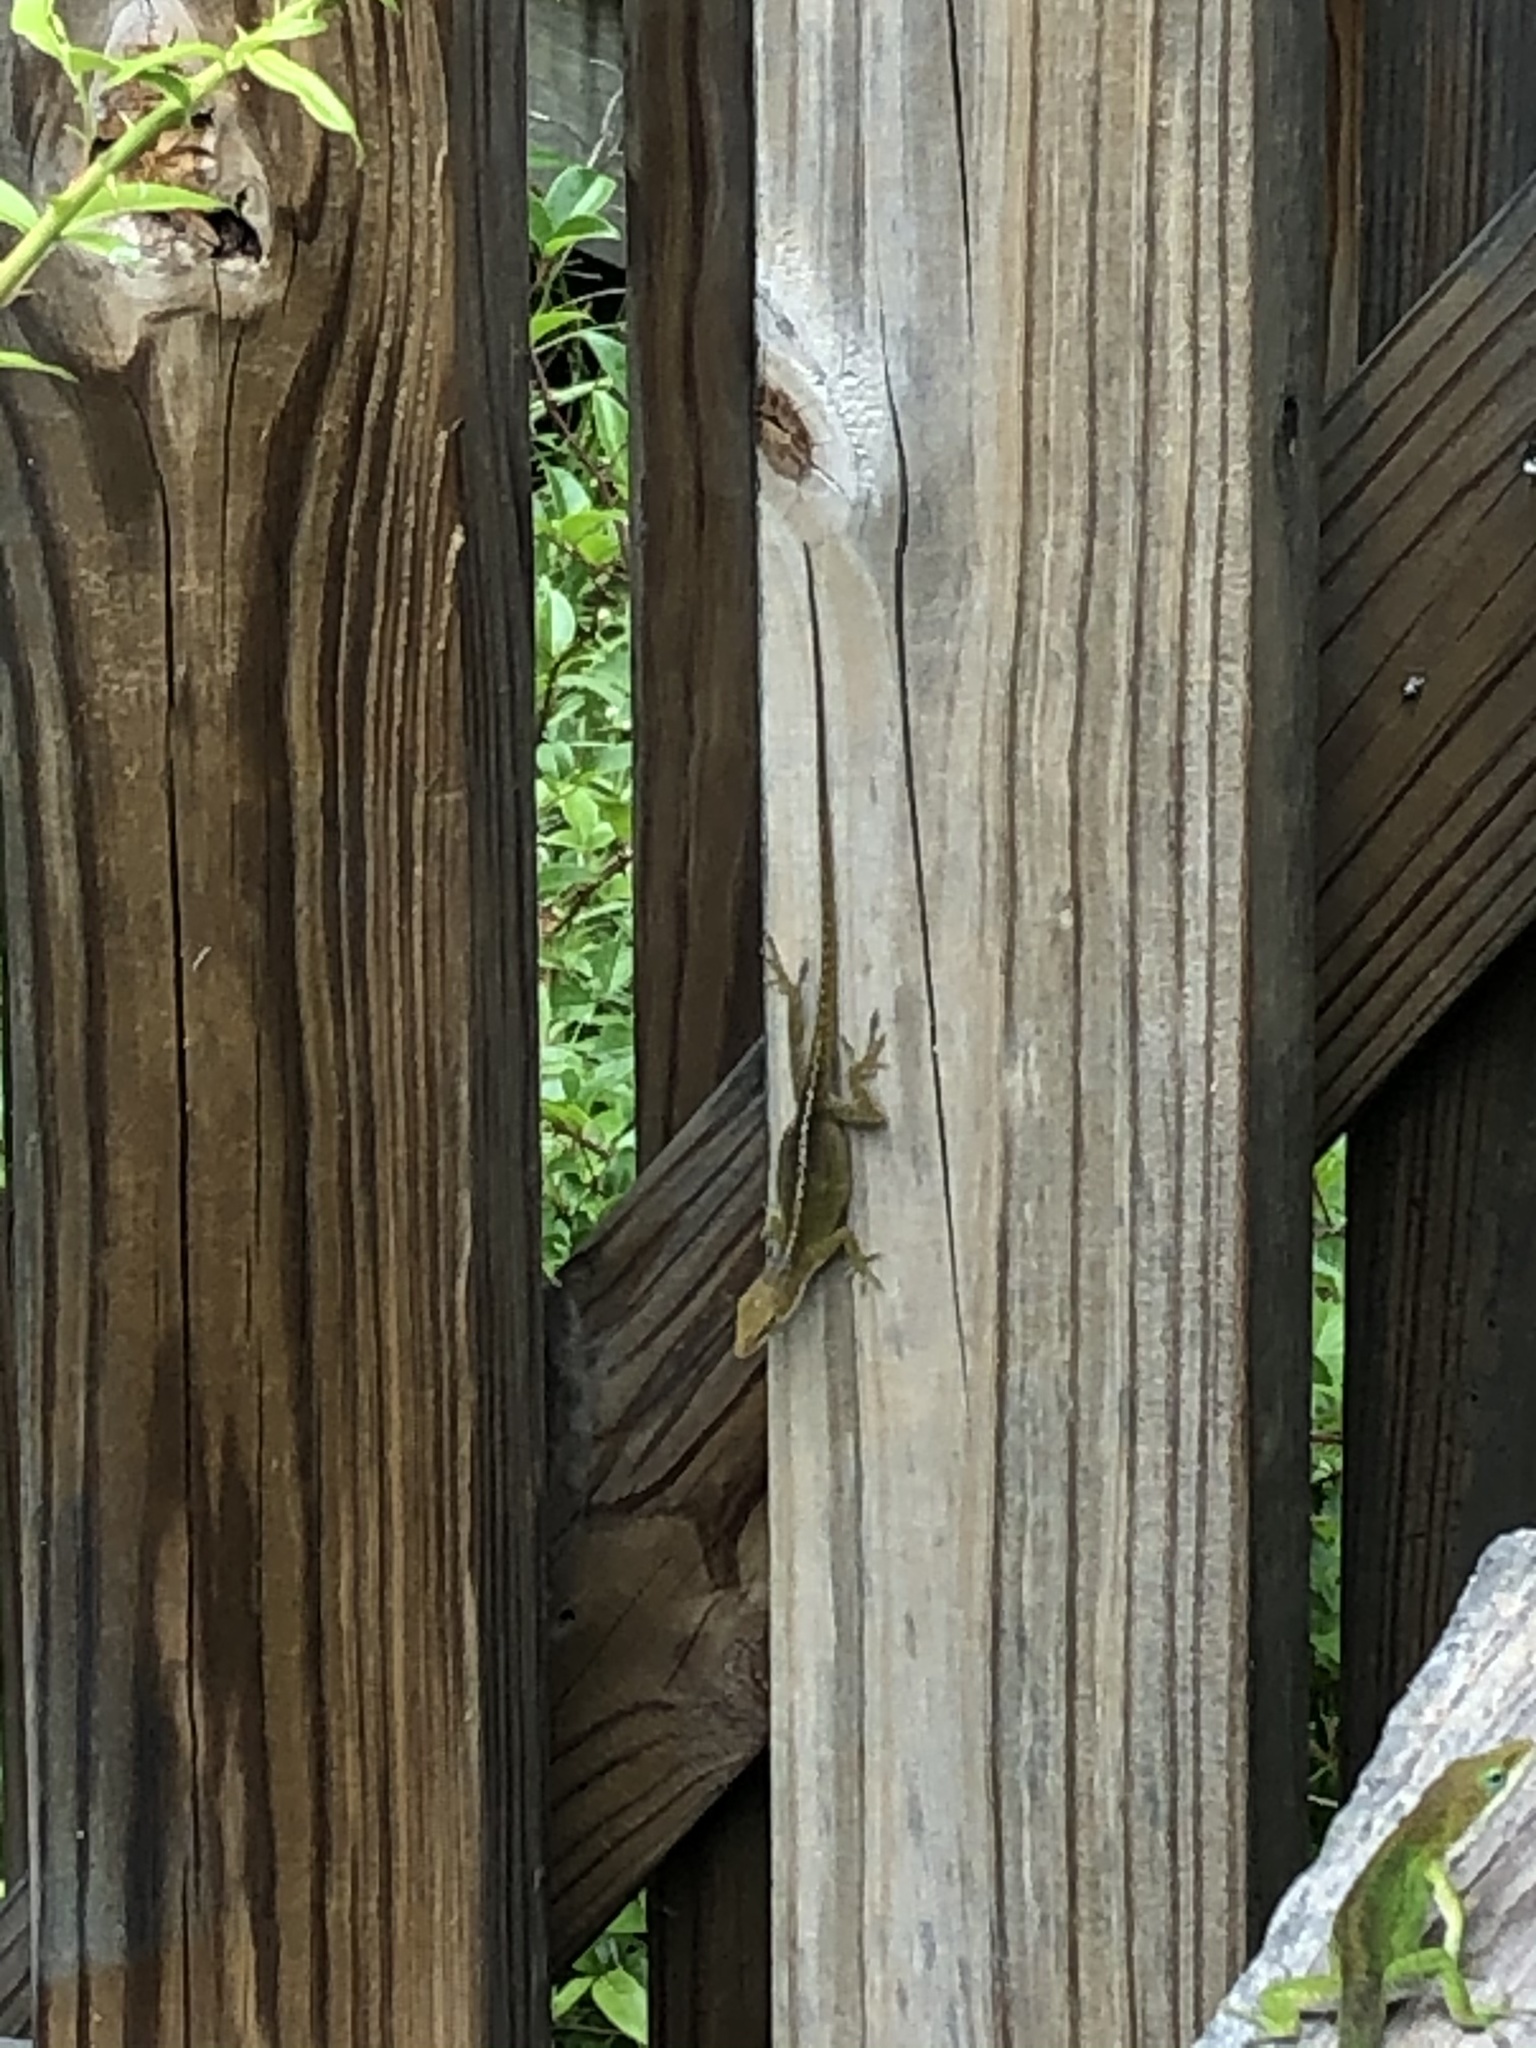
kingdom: Animalia
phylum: Chordata
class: Squamata
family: Dactyloidae
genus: Anolis
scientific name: Anolis carolinensis
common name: Green anole
